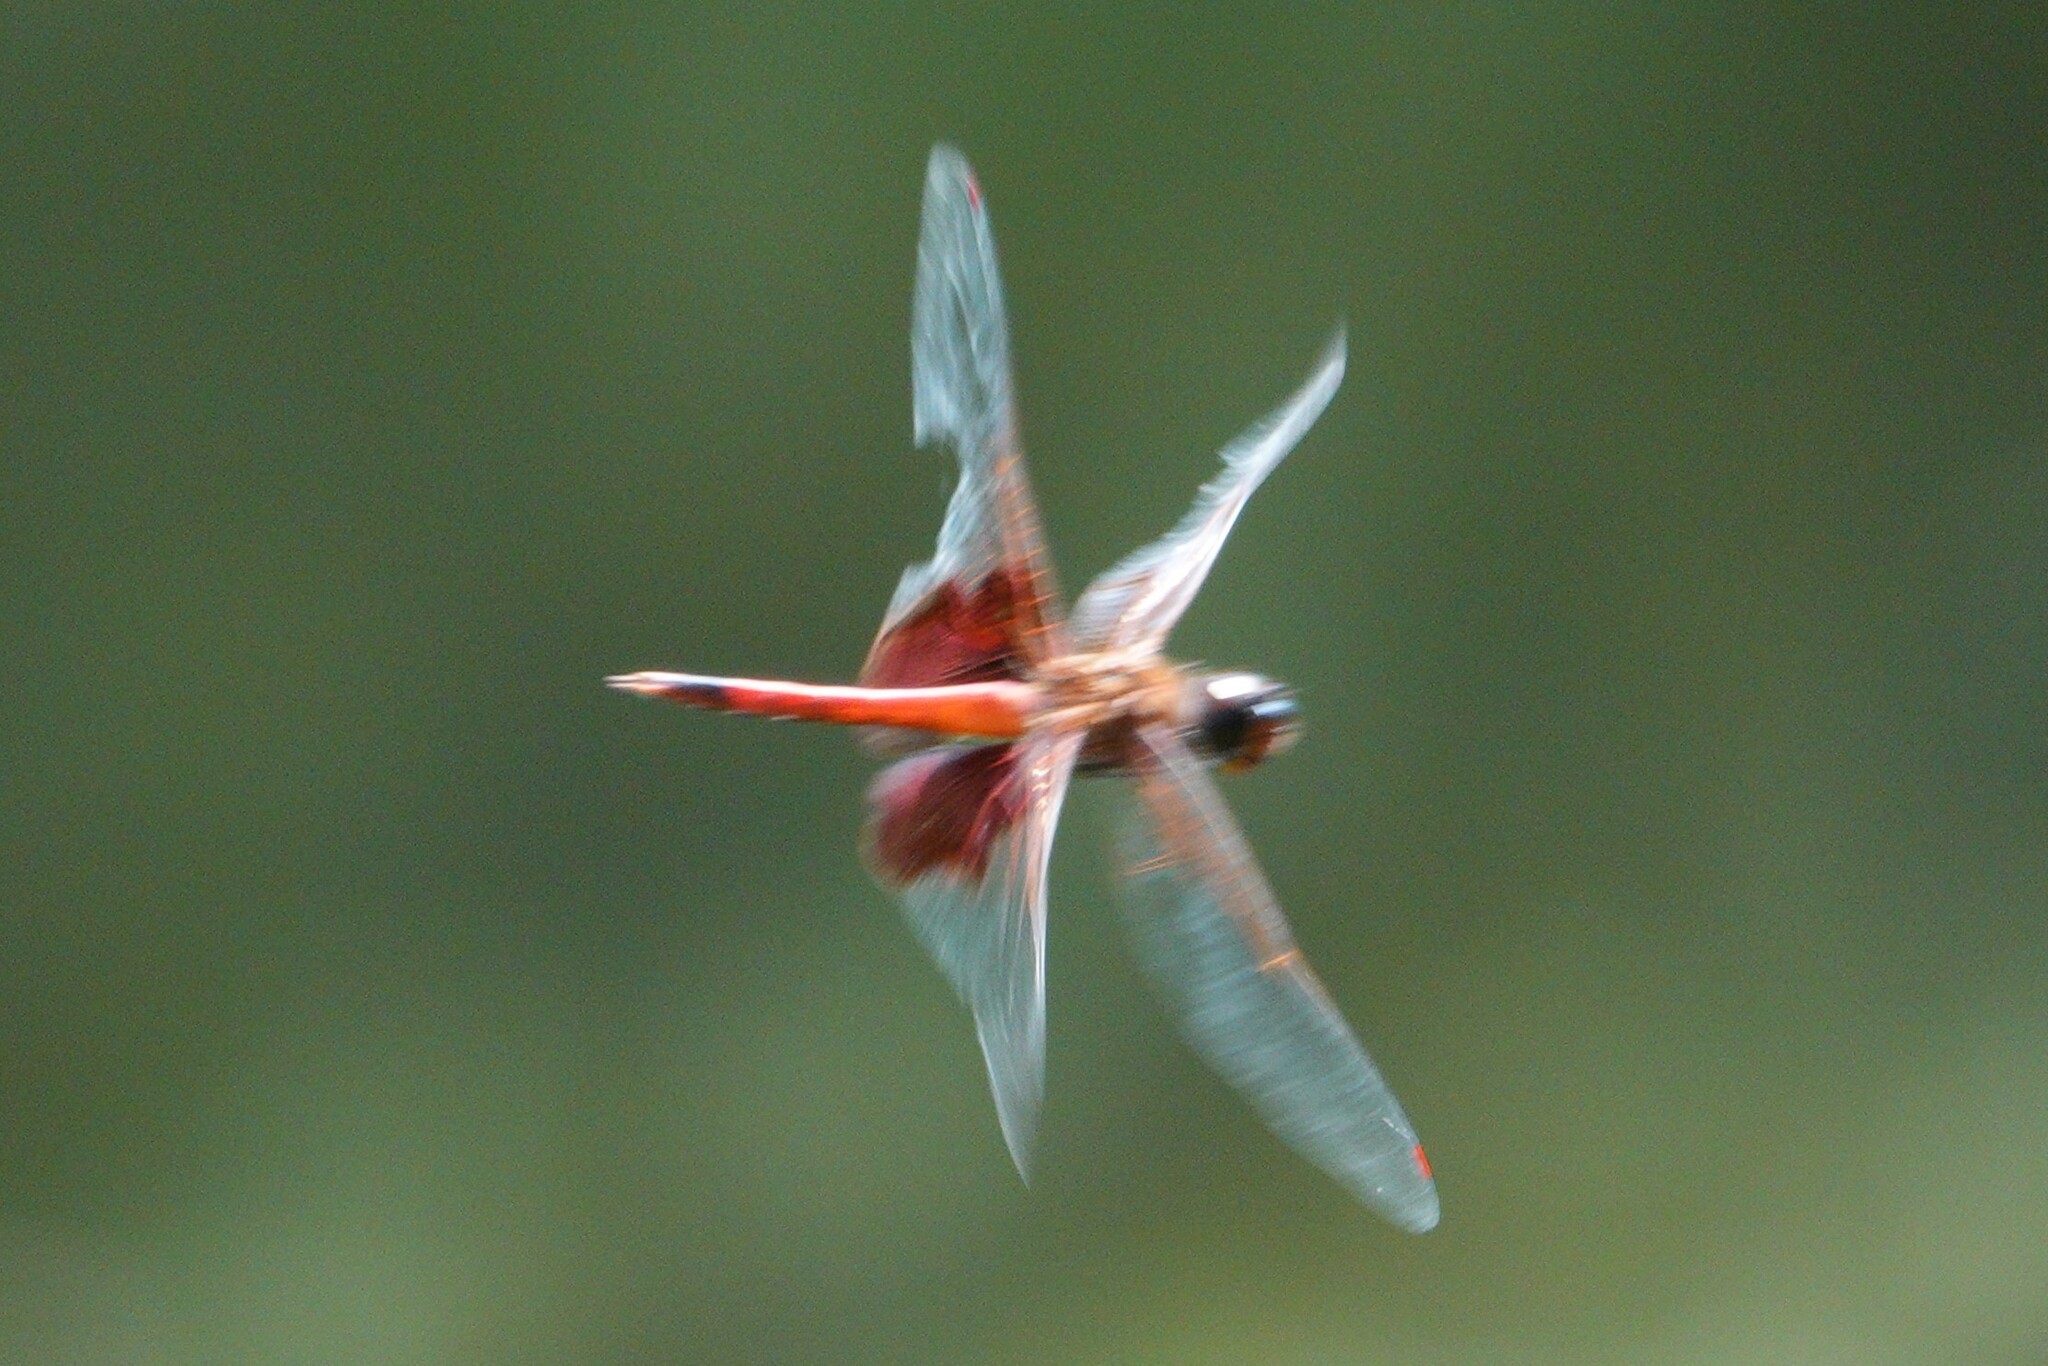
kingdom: Animalia
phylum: Arthropoda
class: Insecta
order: Odonata
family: Libellulidae
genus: Tramea
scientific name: Tramea carolina
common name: Carolina saddlebags
